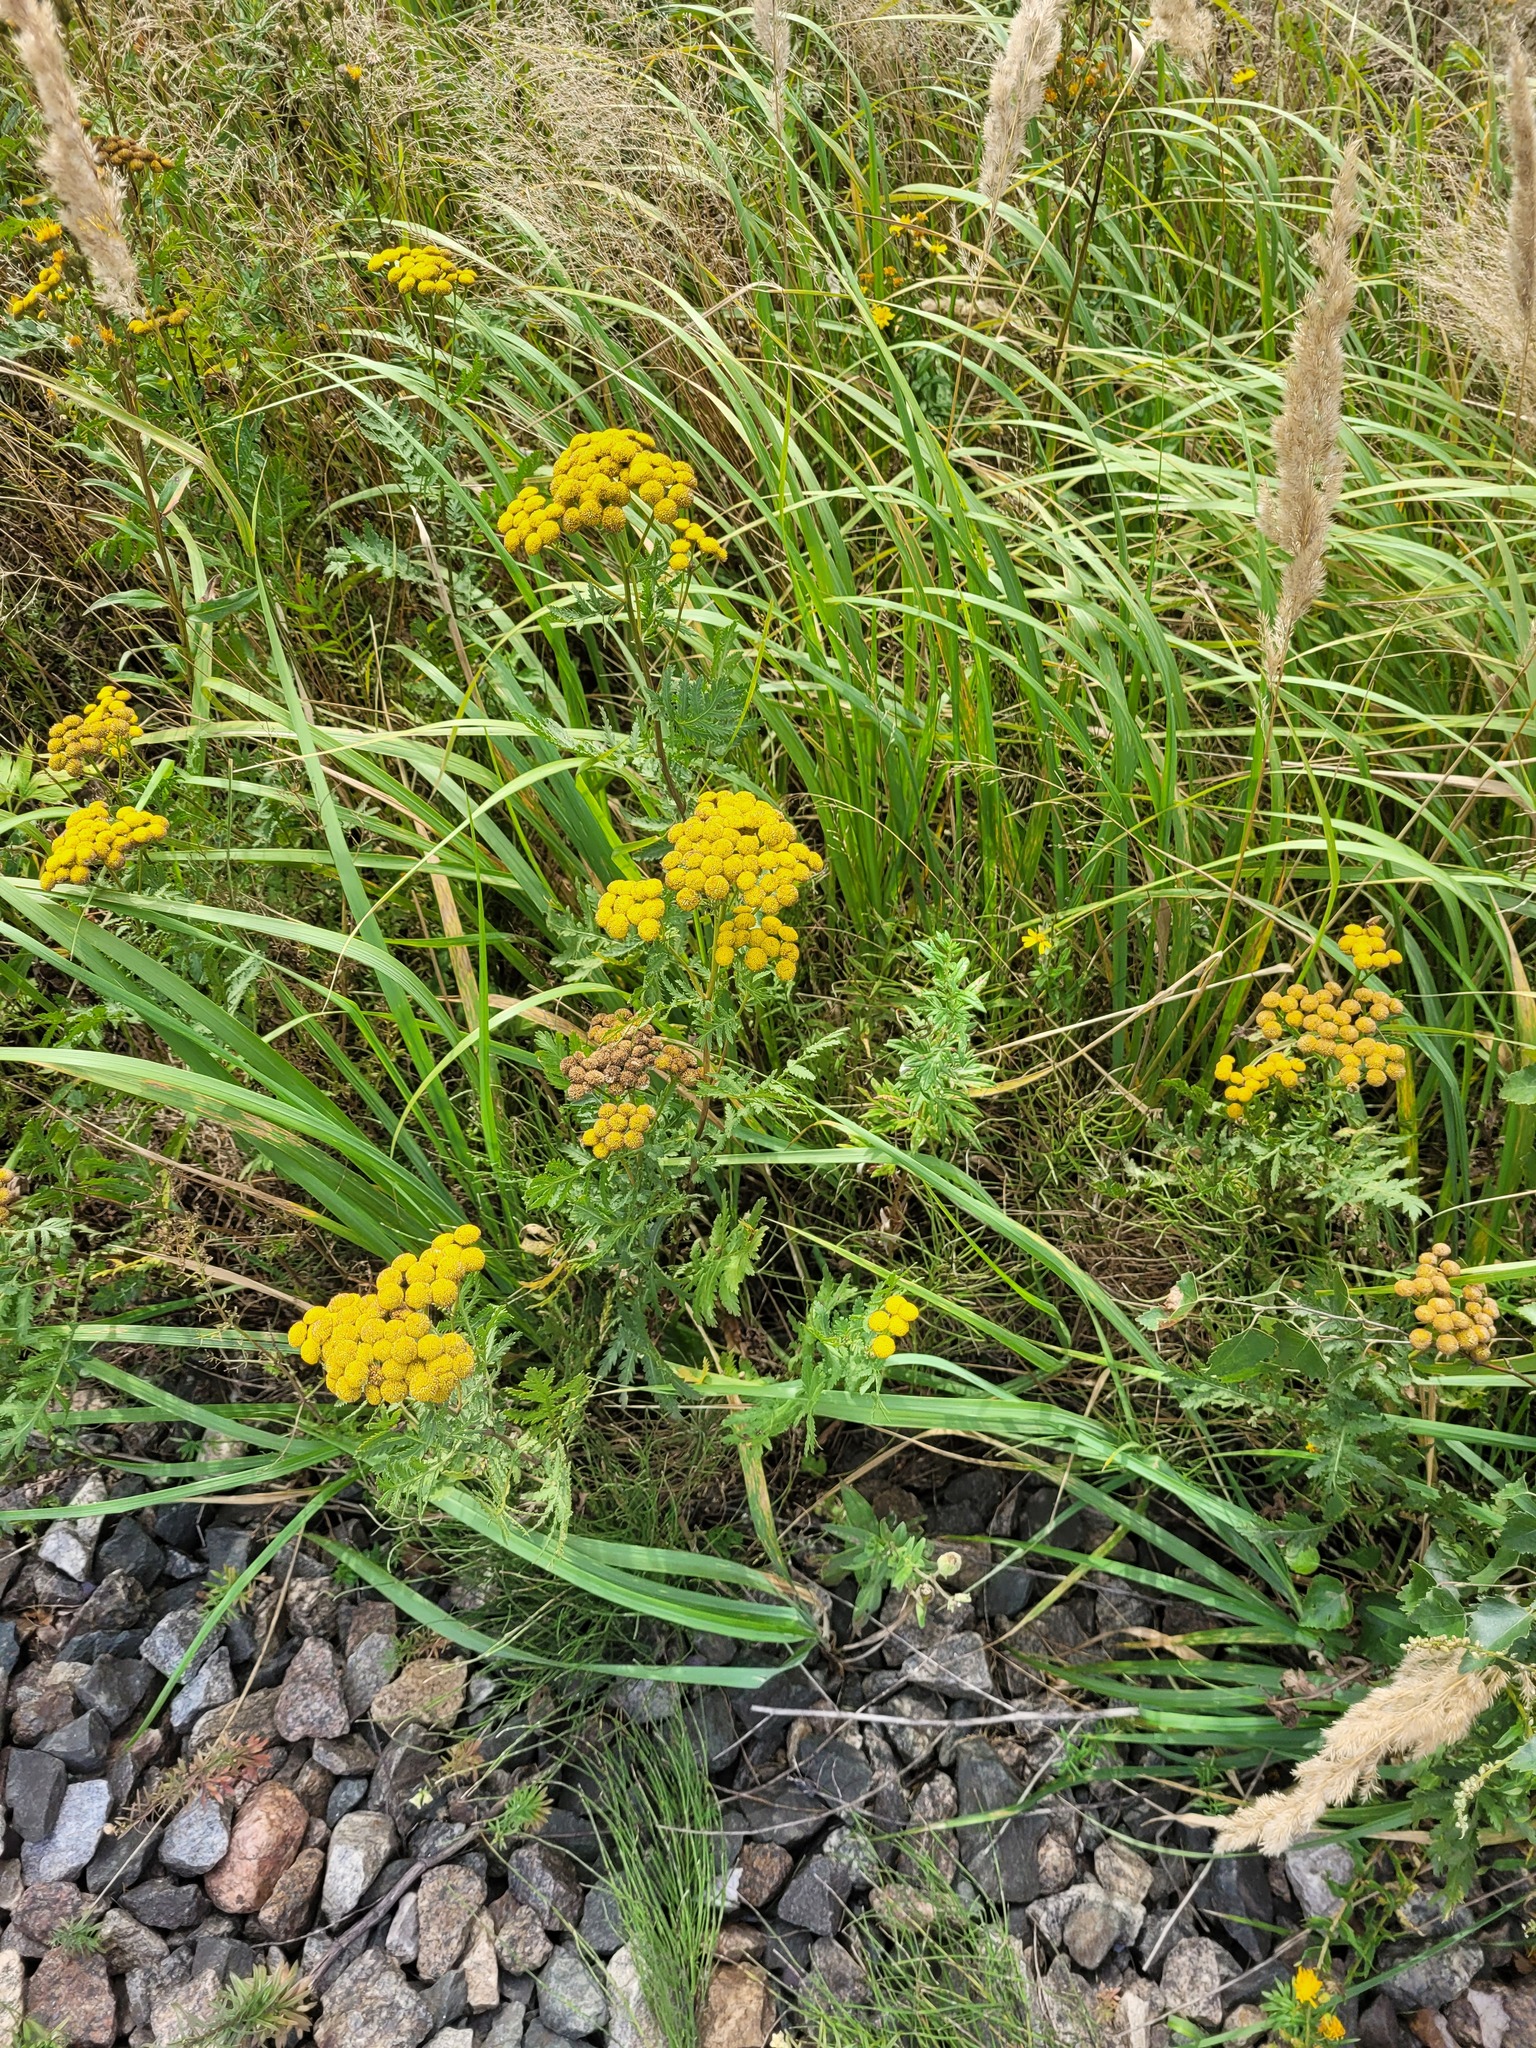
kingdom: Plantae
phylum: Tracheophyta
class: Magnoliopsida
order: Asterales
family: Asteraceae
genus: Tanacetum
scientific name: Tanacetum vulgare
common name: Common tansy
